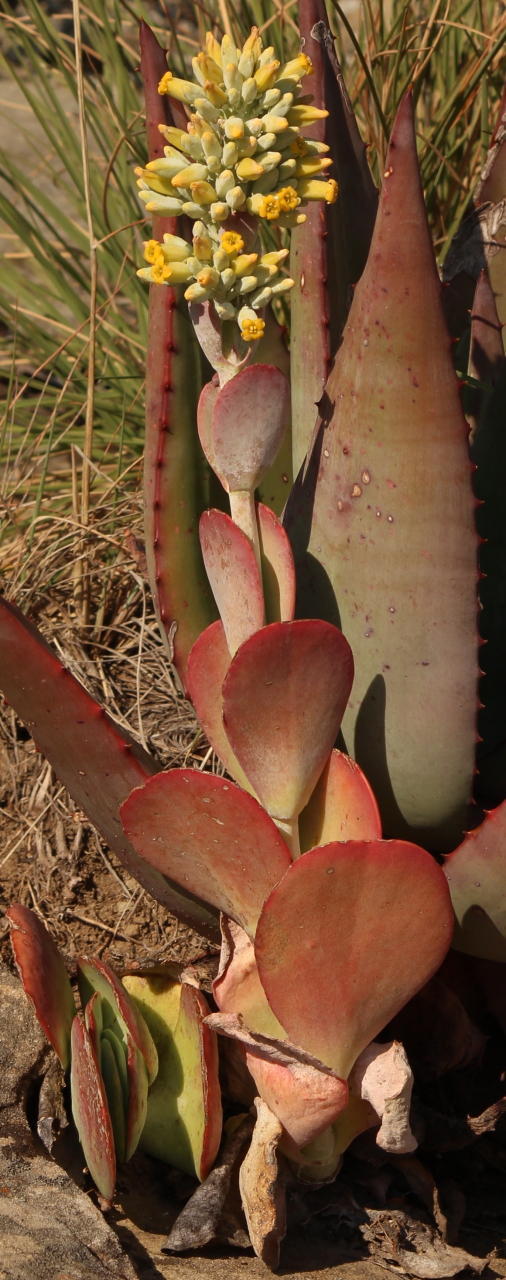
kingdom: Plantae
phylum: Tracheophyta
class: Magnoliopsida
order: Saxifragales
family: Crassulaceae
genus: Kalanchoe
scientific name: Kalanchoe thyrsiflora
